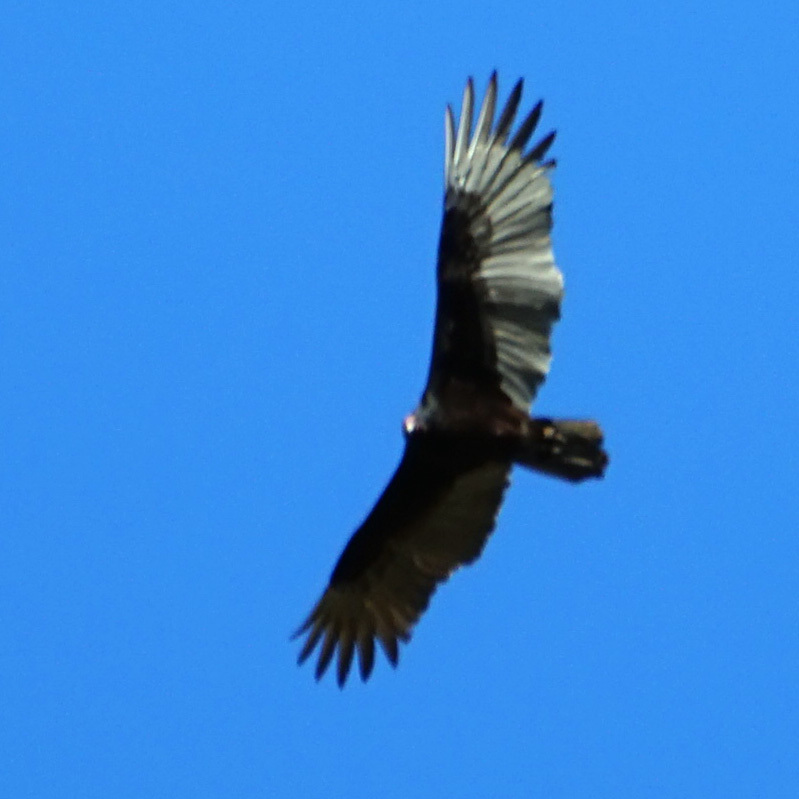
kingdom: Animalia
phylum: Chordata
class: Aves
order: Accipitriformes
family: Cathartidae
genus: Cathartes
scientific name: Cathartes aura
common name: Turkey vulture
